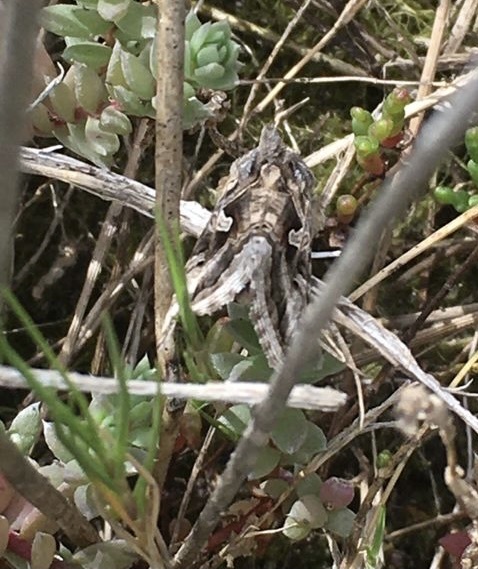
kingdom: Animalia
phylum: Arthropoda
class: Insecta
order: Lepidoptera
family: Noctuidae
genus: Cornutiplusia
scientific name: Cornutiplusia circumflexa
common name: Yorkshire y
